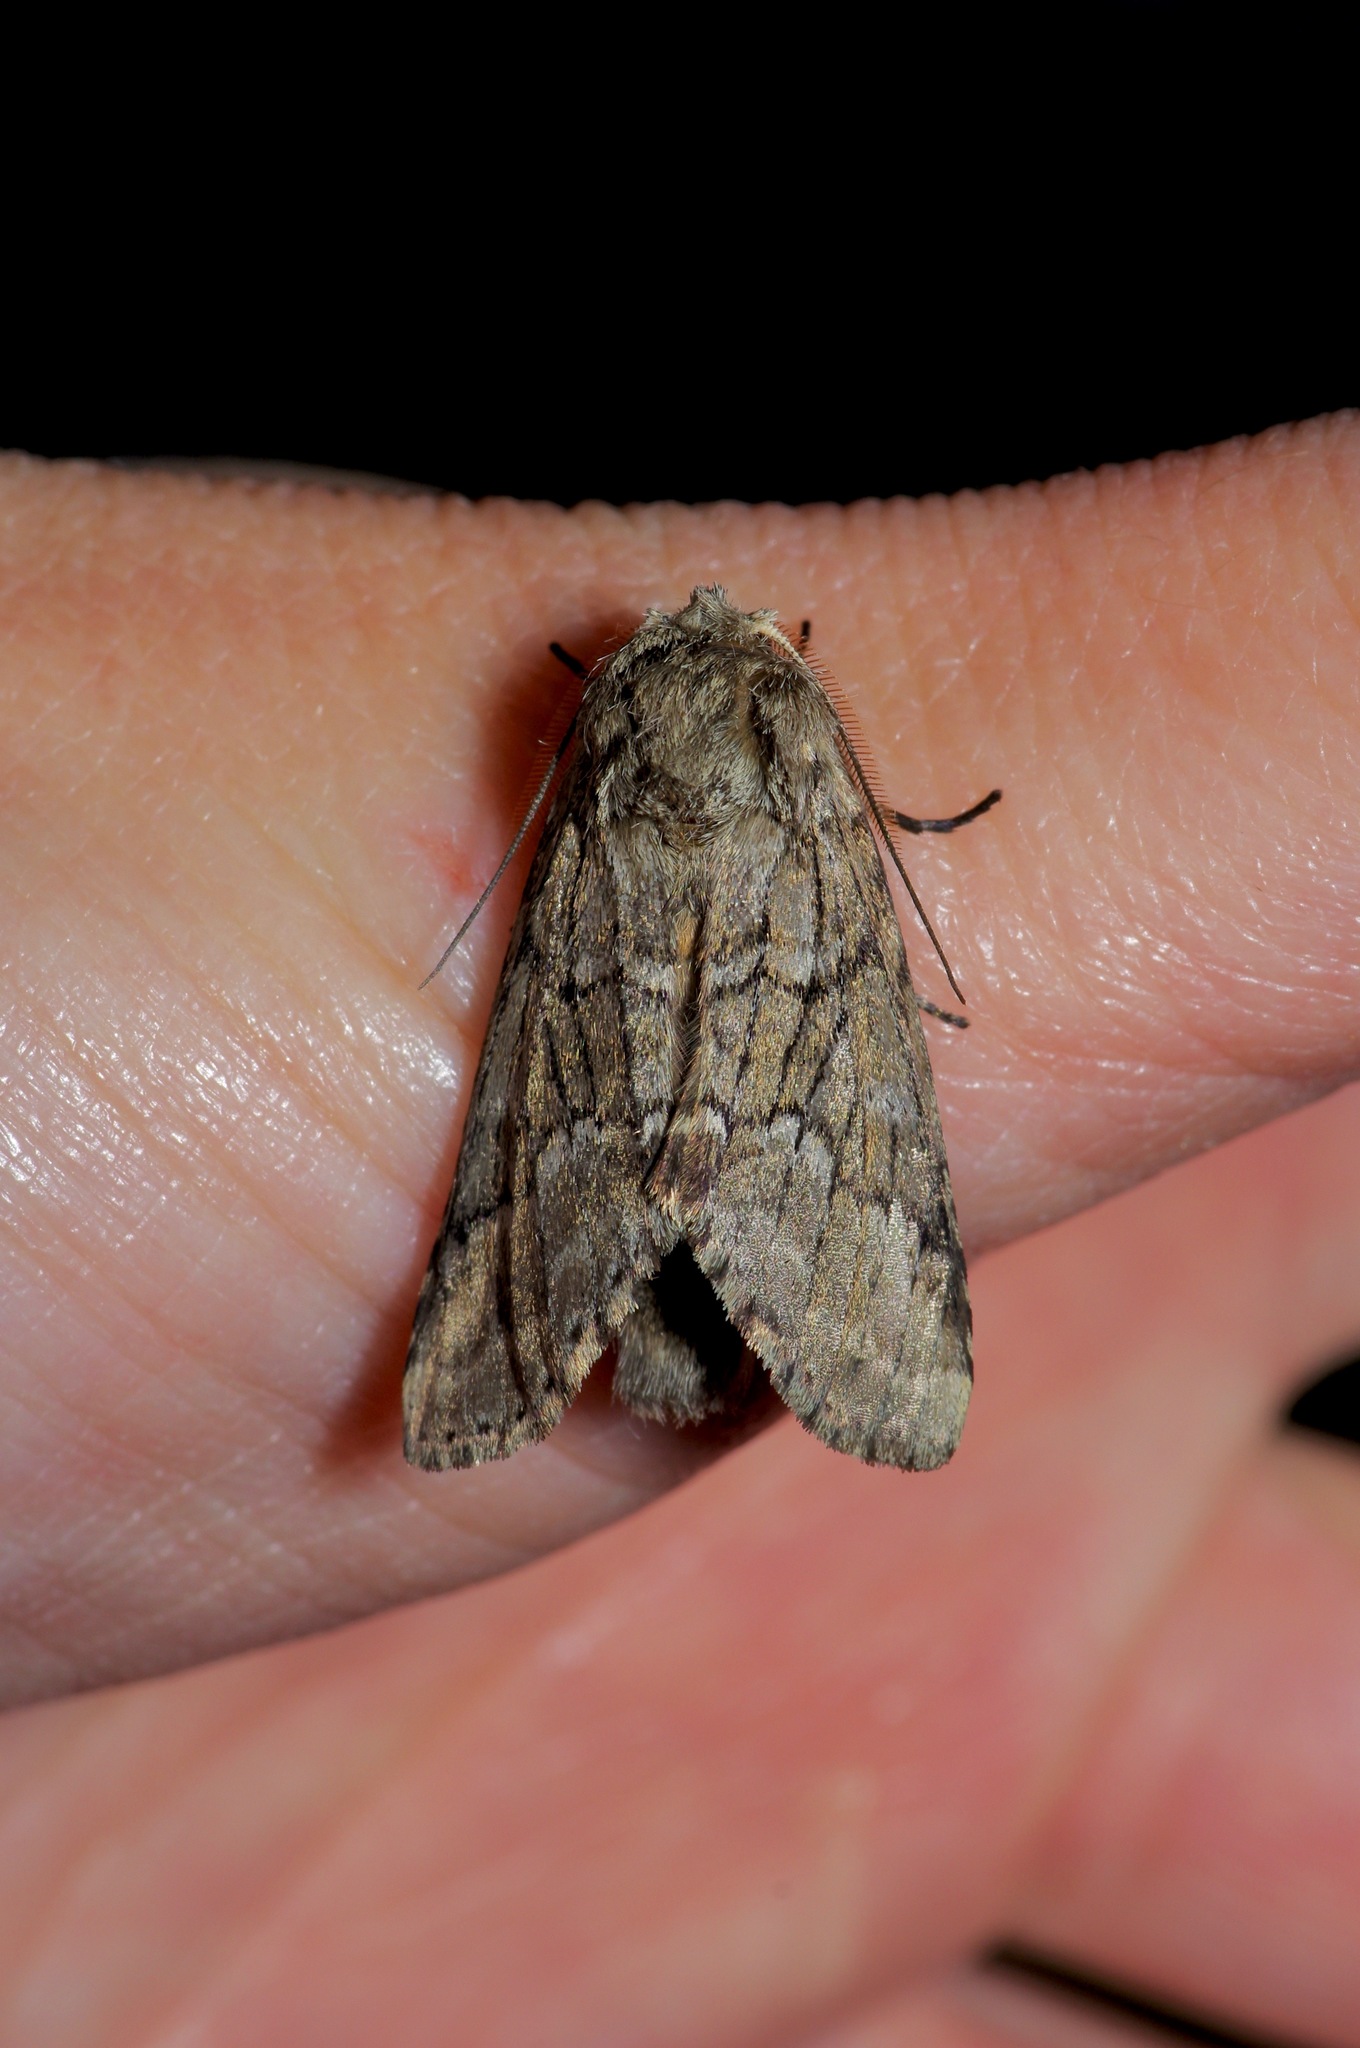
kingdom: Animalia
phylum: Arthropoda
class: Insecta
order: Lepidoptera
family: Notodontidae
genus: Lochmaeus
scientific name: Lochmaeus bilineata
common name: Double-lined prominent
